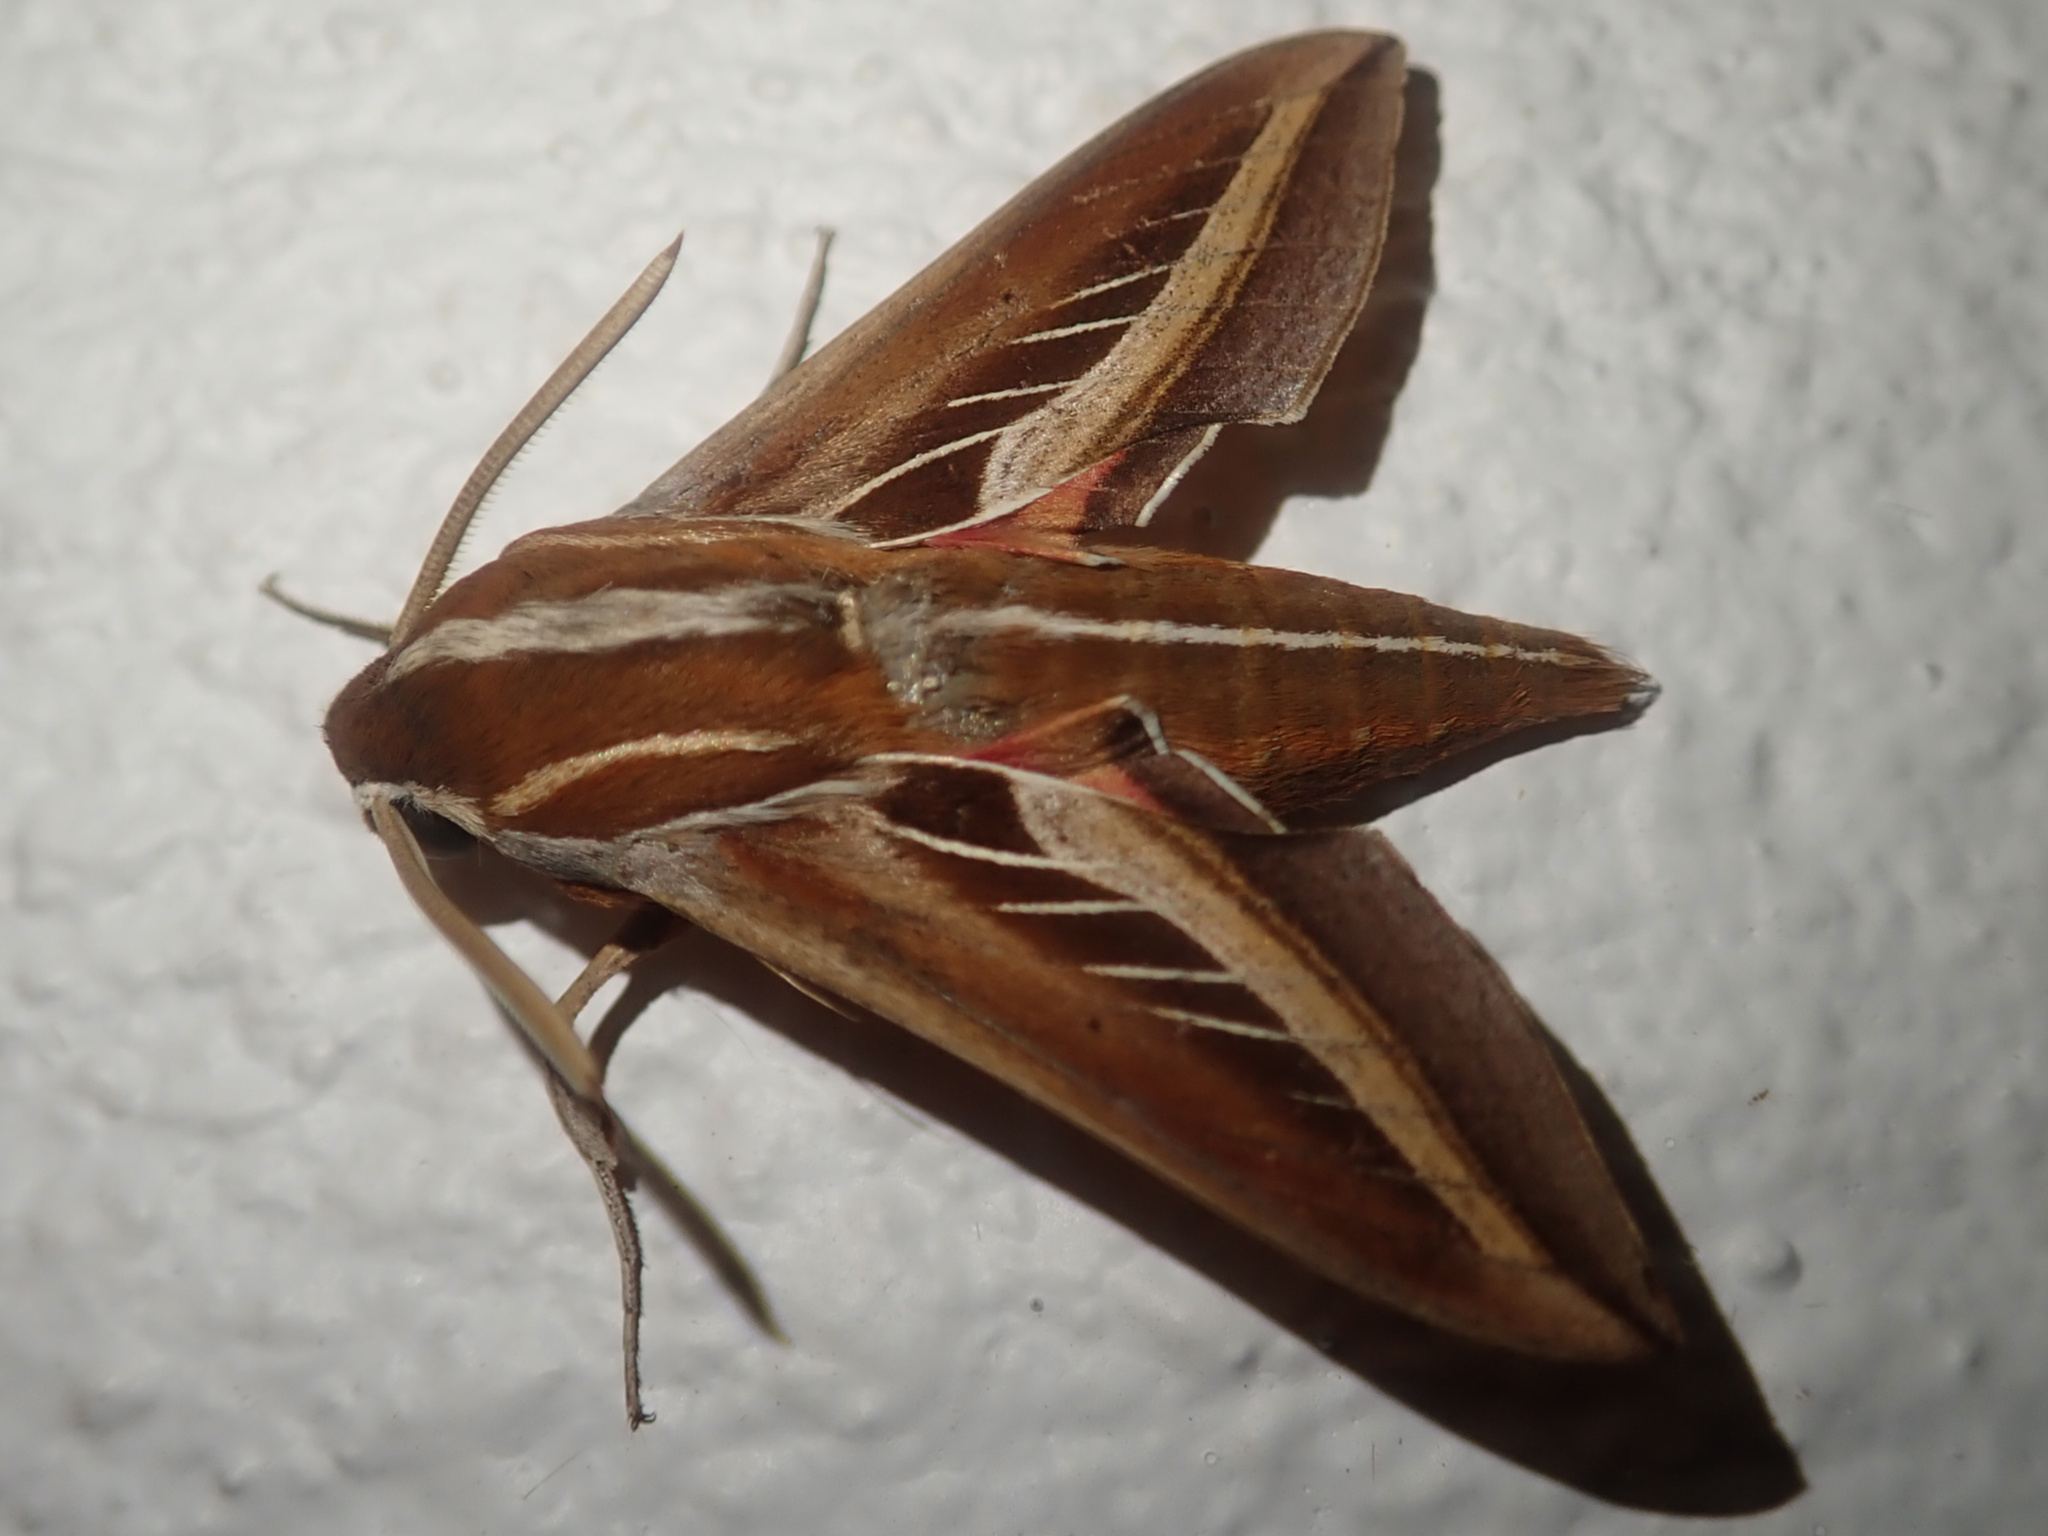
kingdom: Animalia
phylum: Arthropoda
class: Insecta
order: Lepidoptera
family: Sphingidae
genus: Basiothia
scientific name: Basiothia schenki
